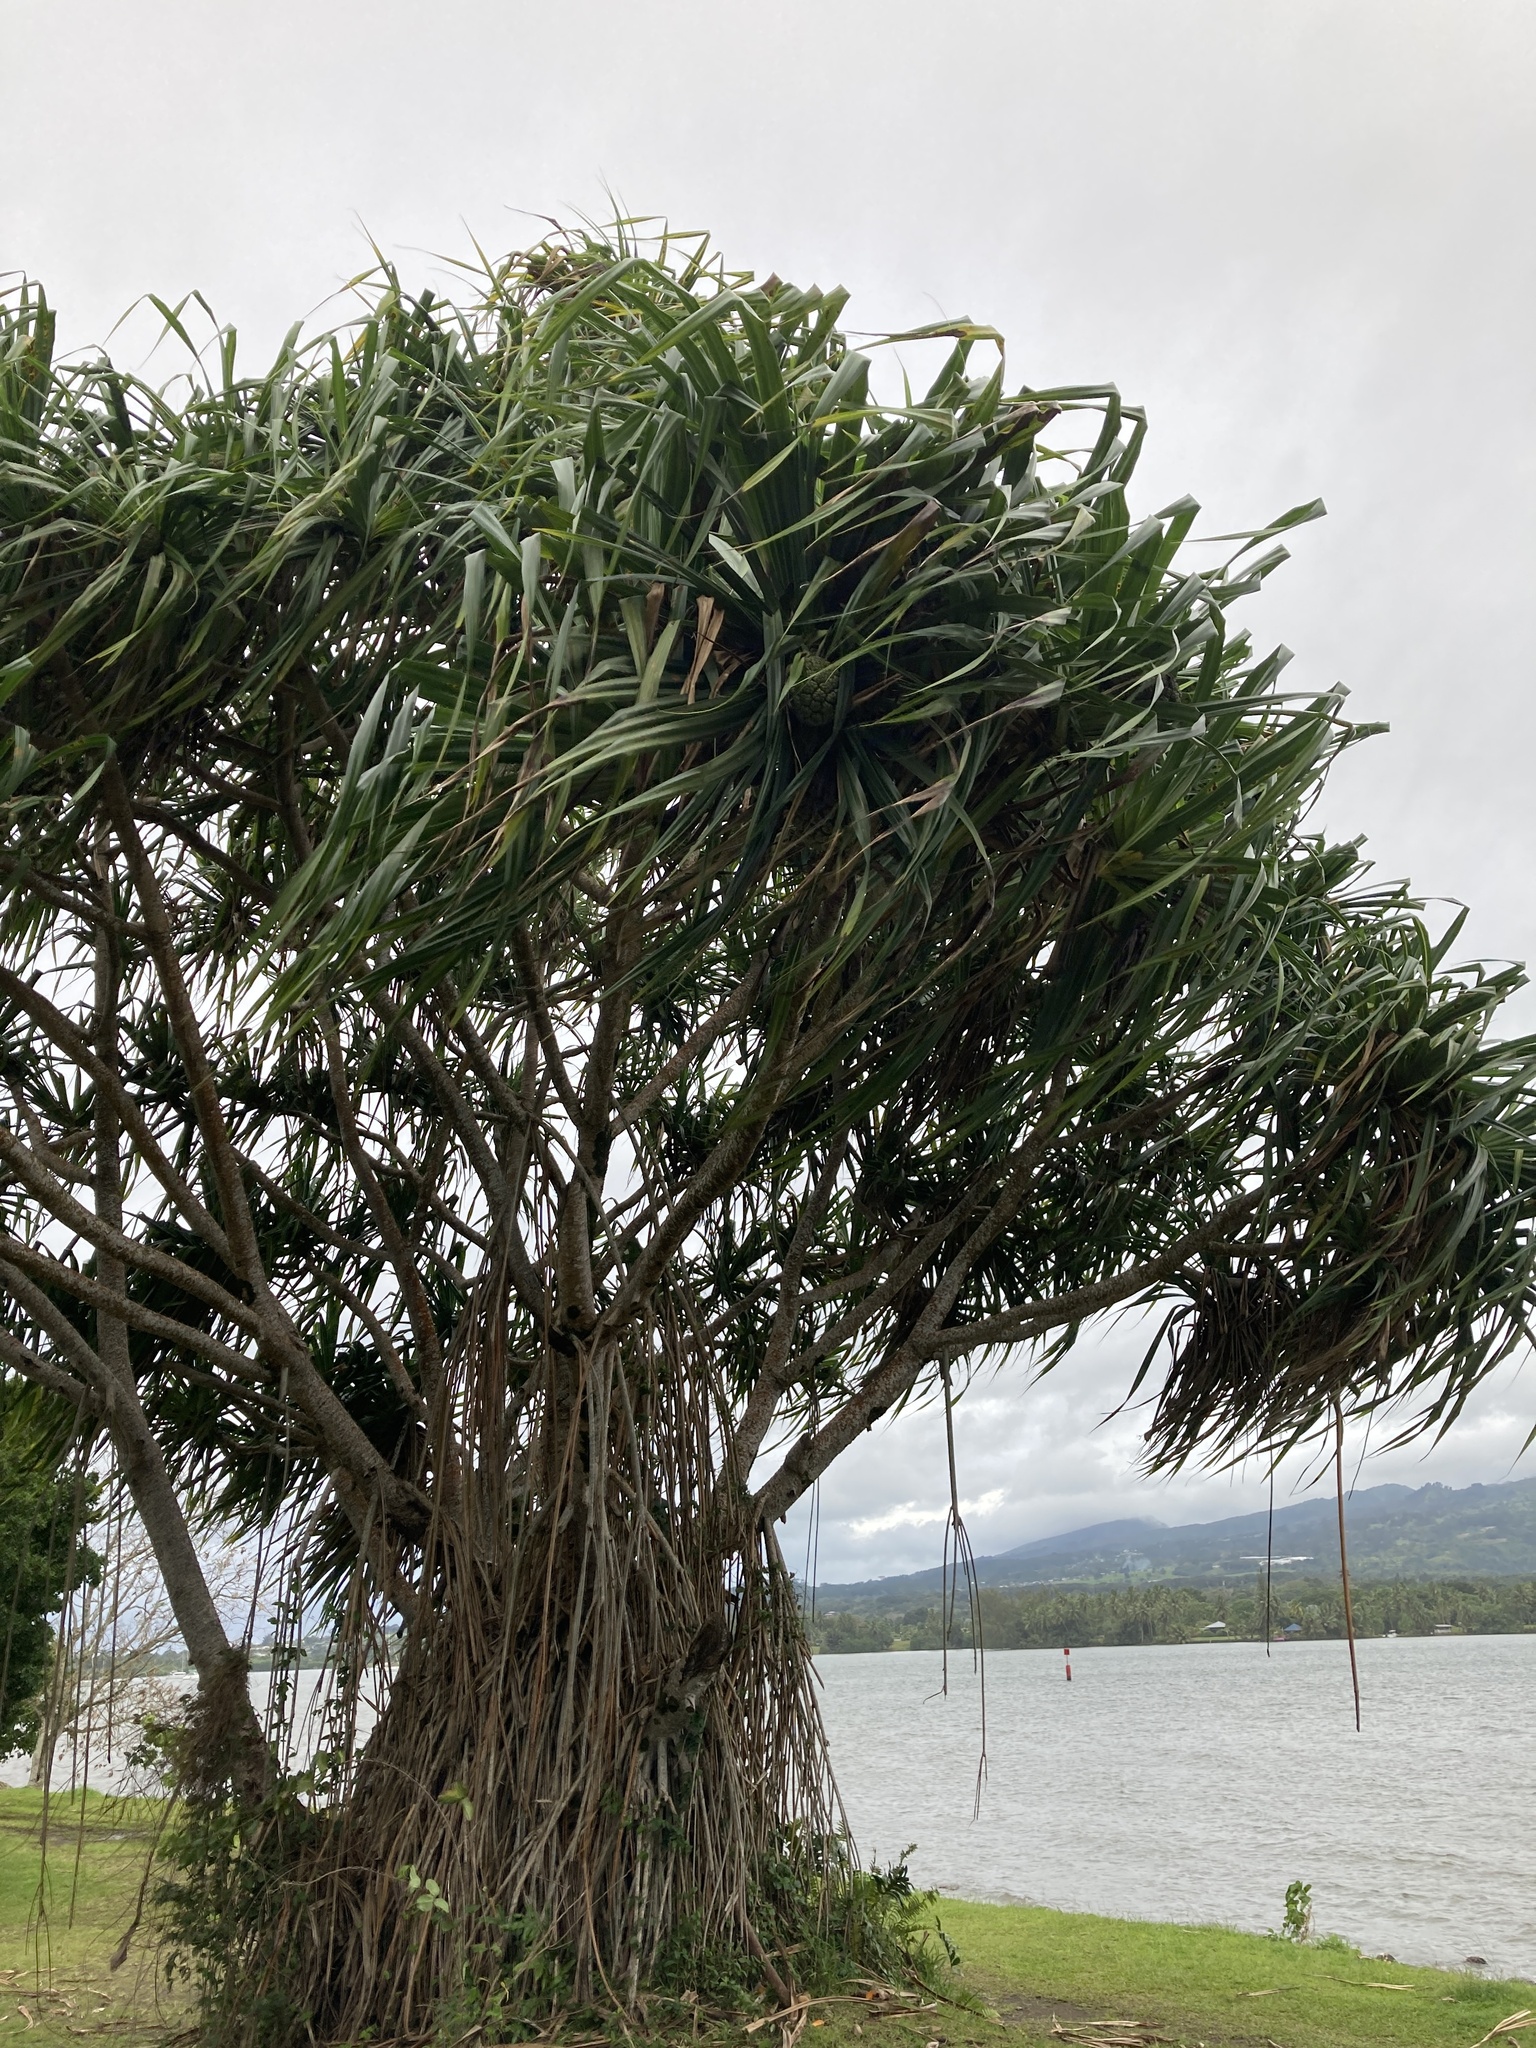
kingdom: Plantae
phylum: Tracheophyta
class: Liliopsida
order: Pandanales
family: Pandanaceae
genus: Pandanus
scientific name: Pandanus tectorius
